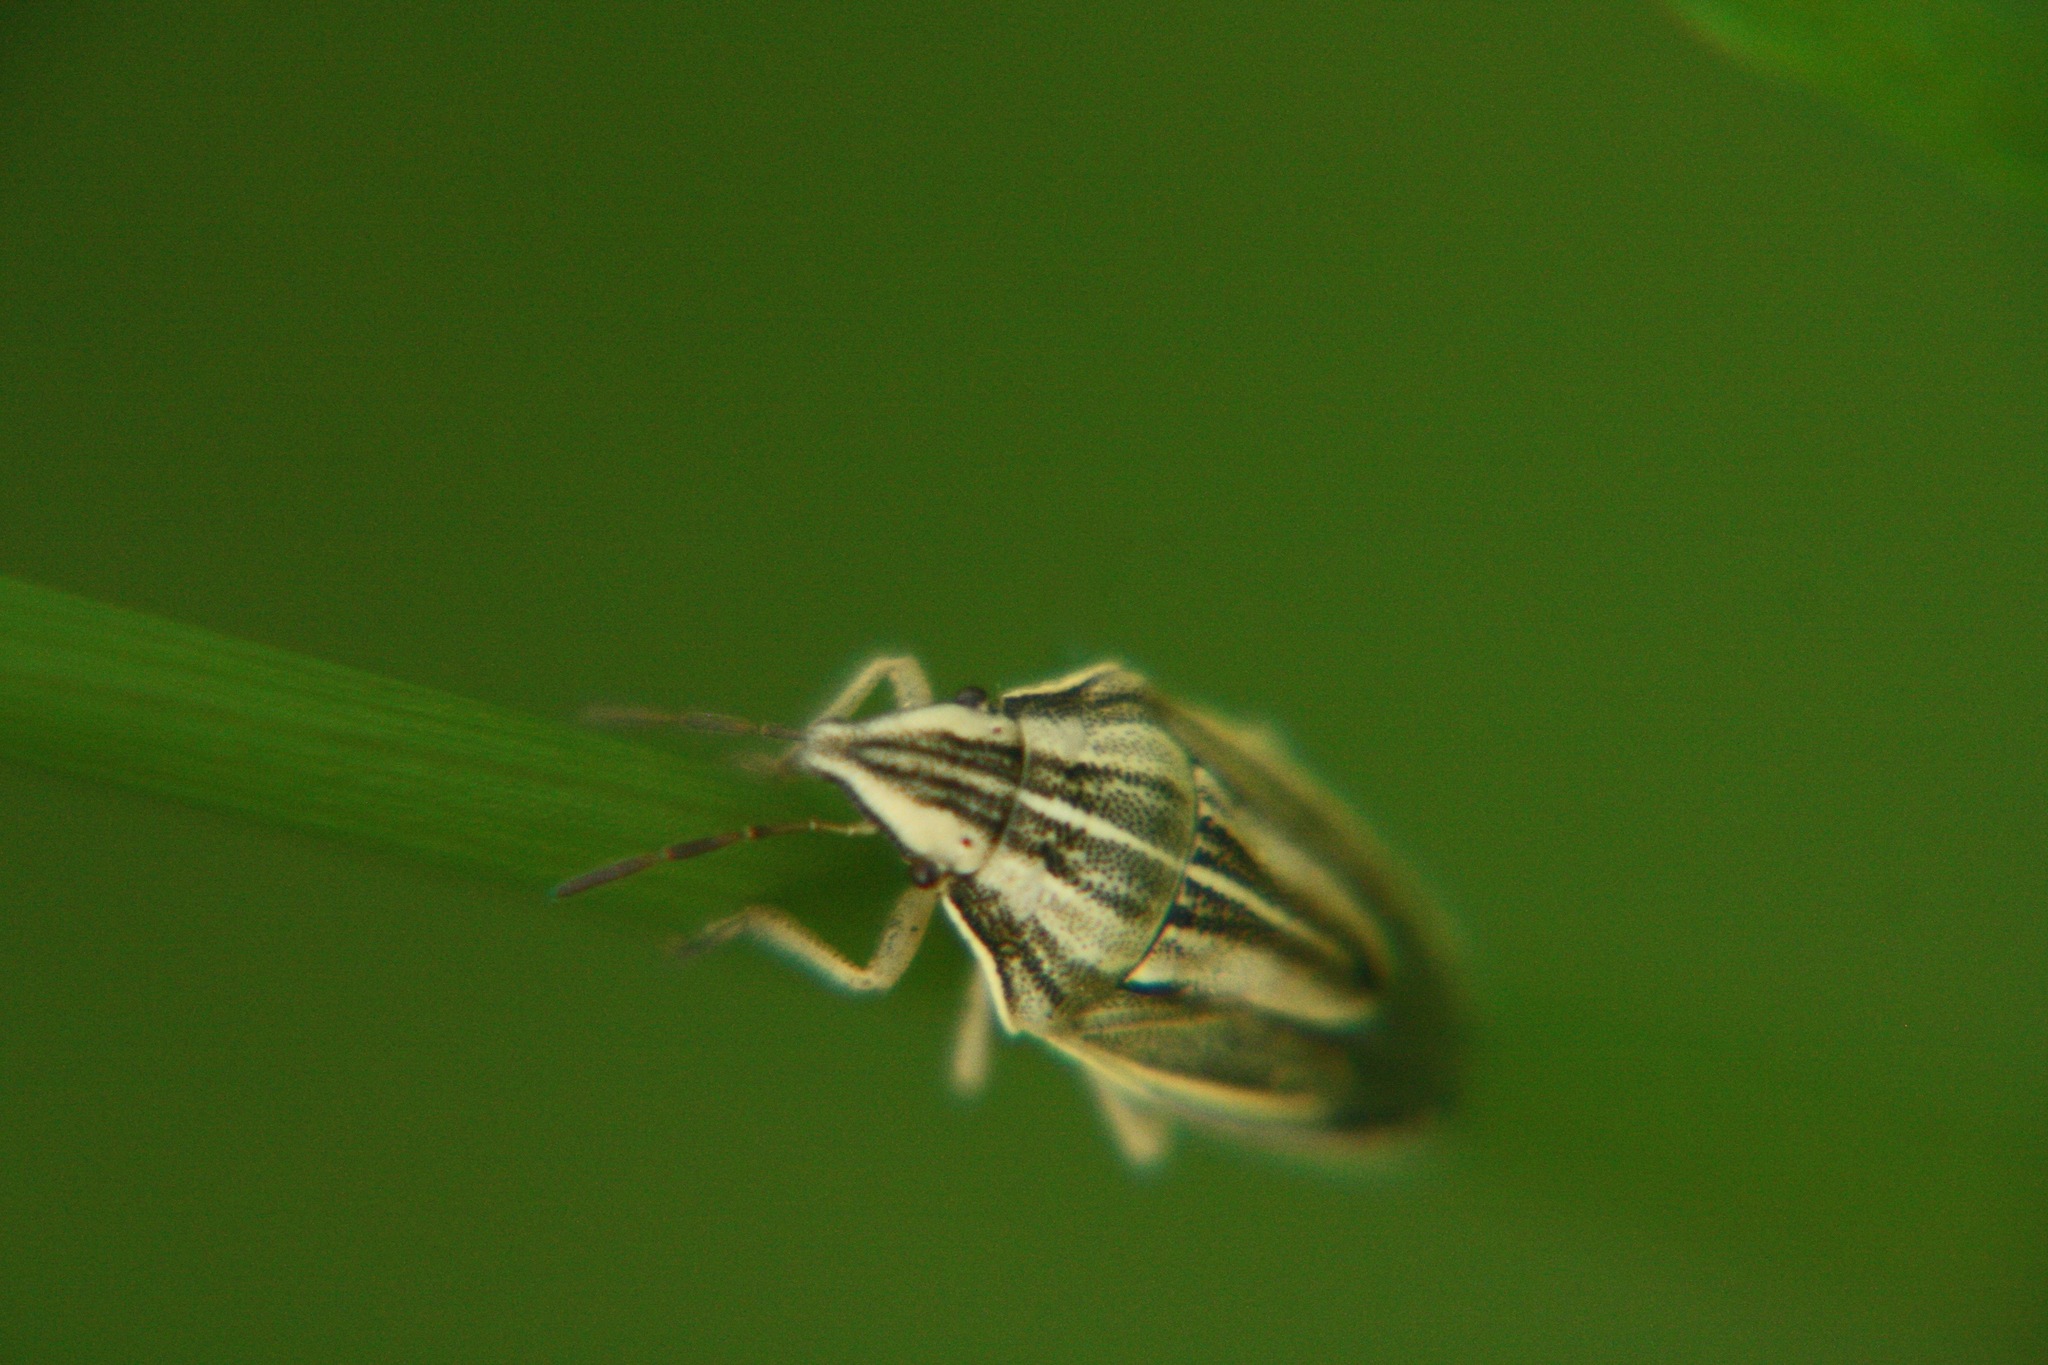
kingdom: Animalia
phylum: Arthropoda
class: Insecta
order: Hemiptera
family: Pentatomidae
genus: Aelia
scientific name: Aelia acuminata
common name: Bishop's mitre
